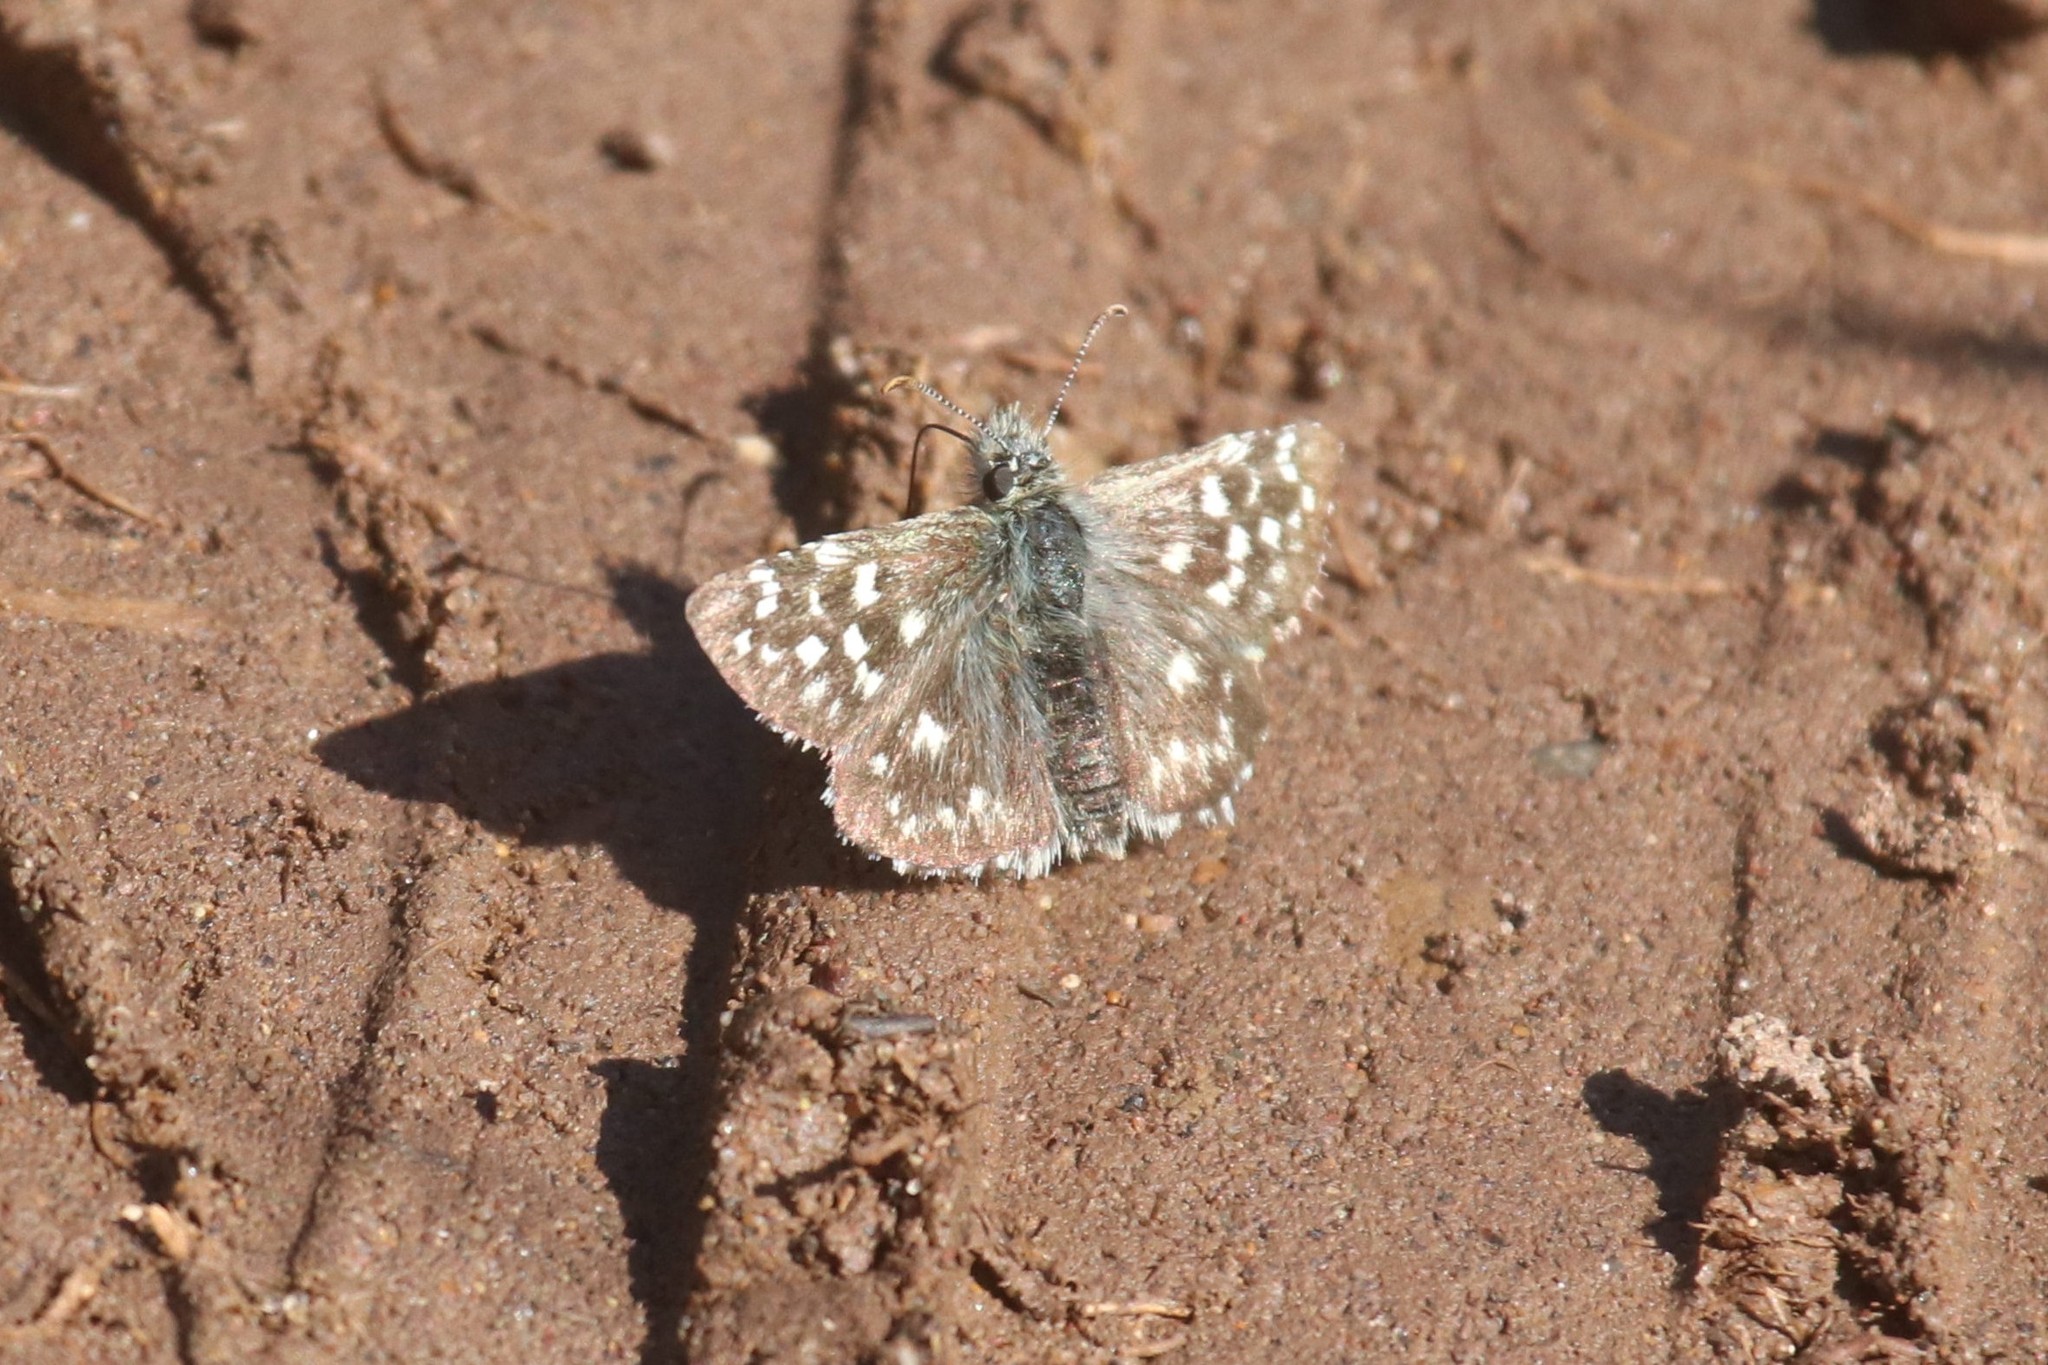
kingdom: Animalia
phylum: Arthropoda
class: Insecta
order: Lepidoptera
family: Hesperiidae
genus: Pyrgus
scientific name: Pyrgus malvae
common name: Grizzled skipper
